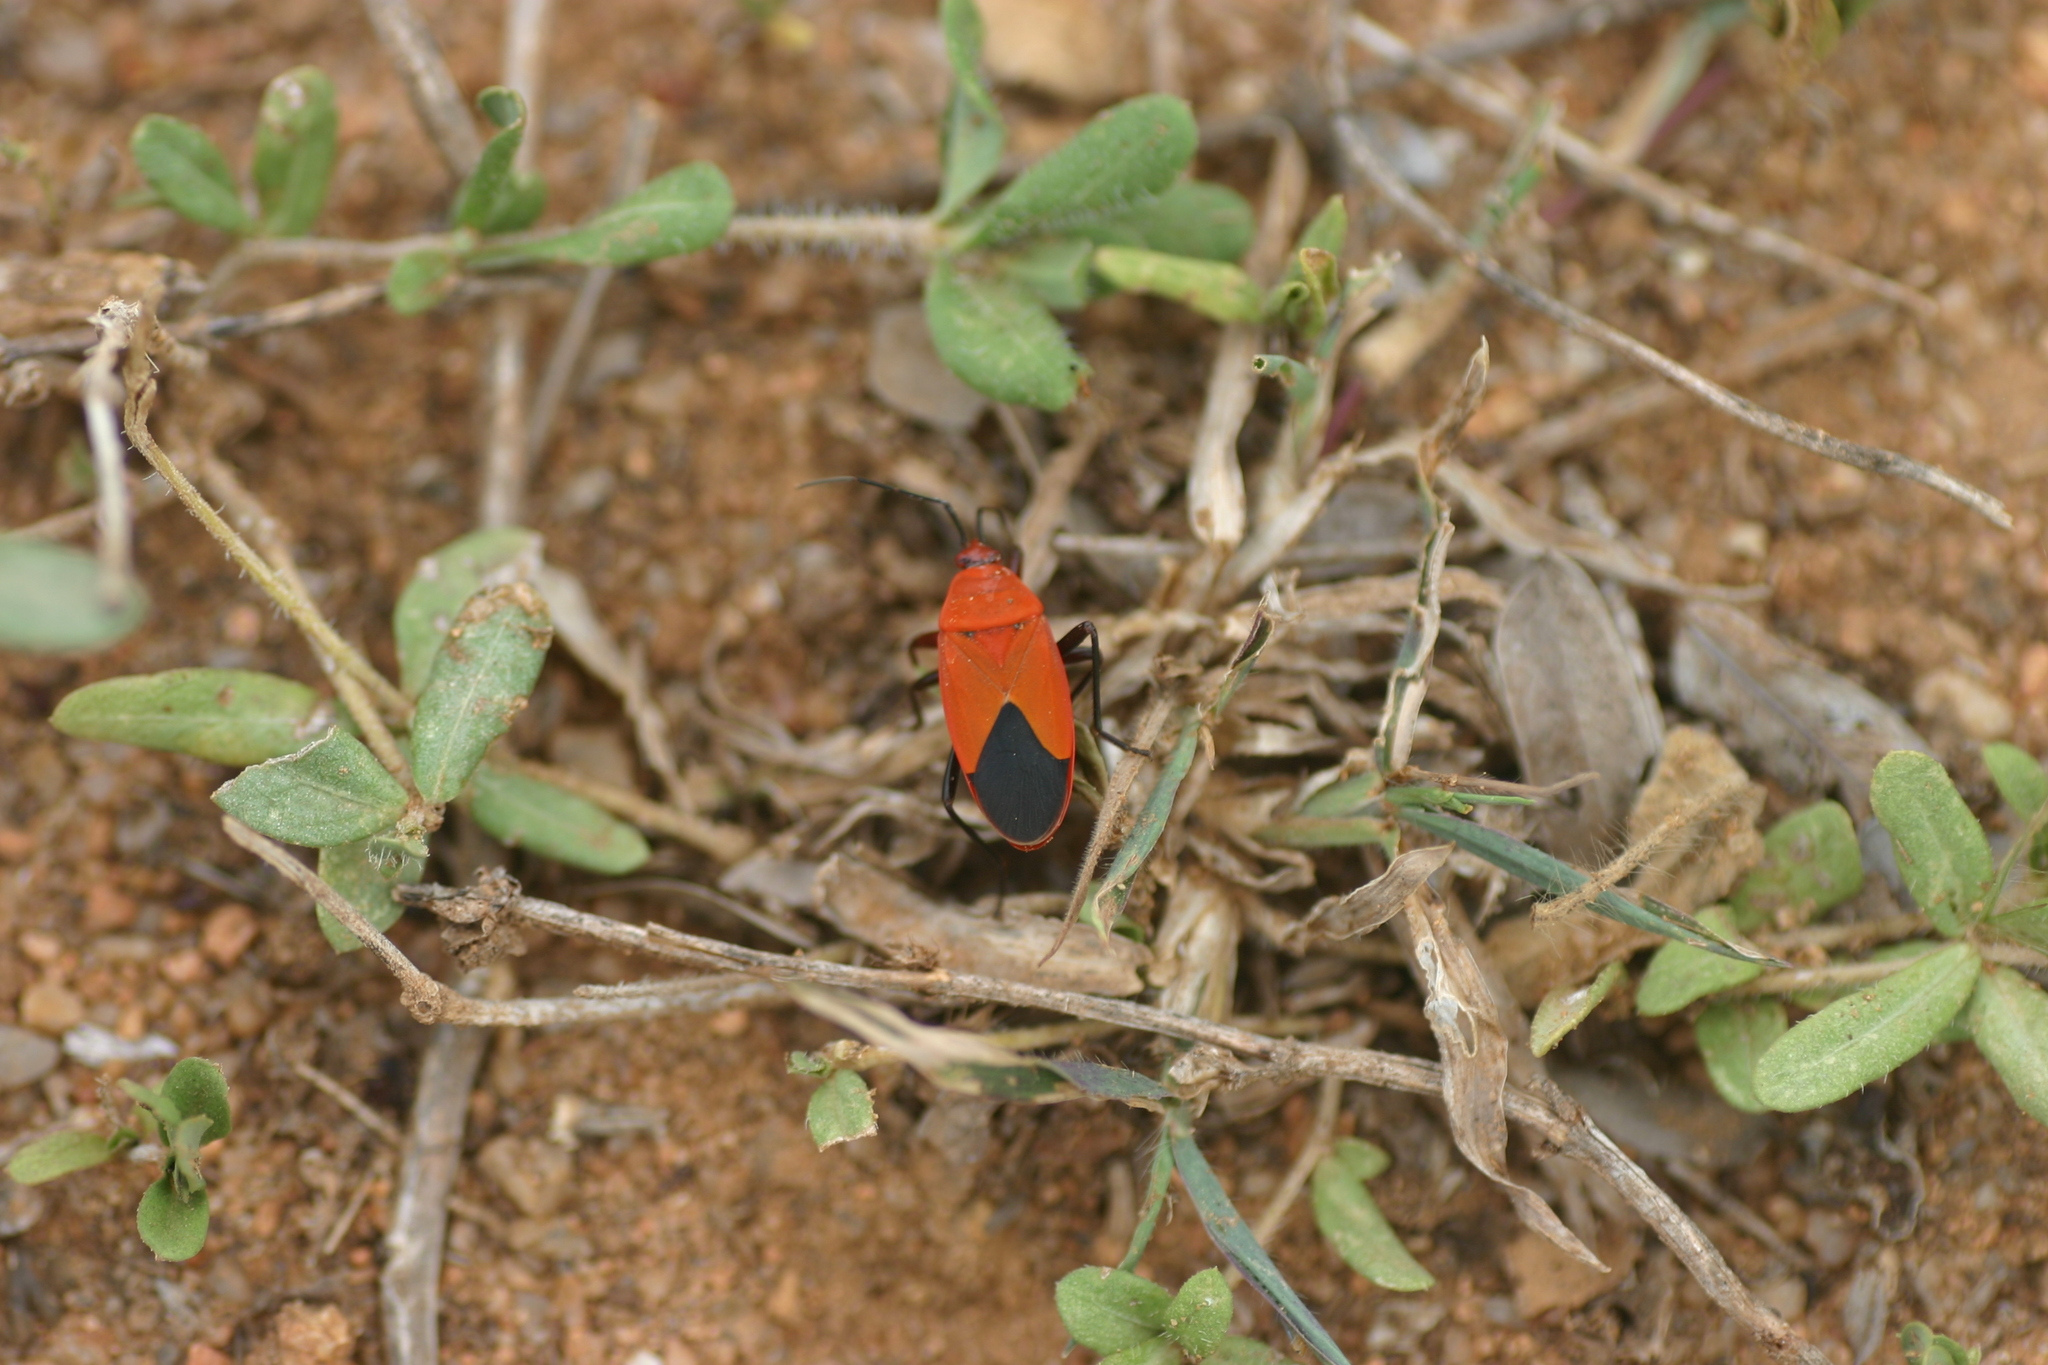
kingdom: Animalia
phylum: Arthropoda
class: Insecta
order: Hemiptera
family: Pyrrhocoridae
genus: Antilochus
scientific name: Antilochus coquebertii
